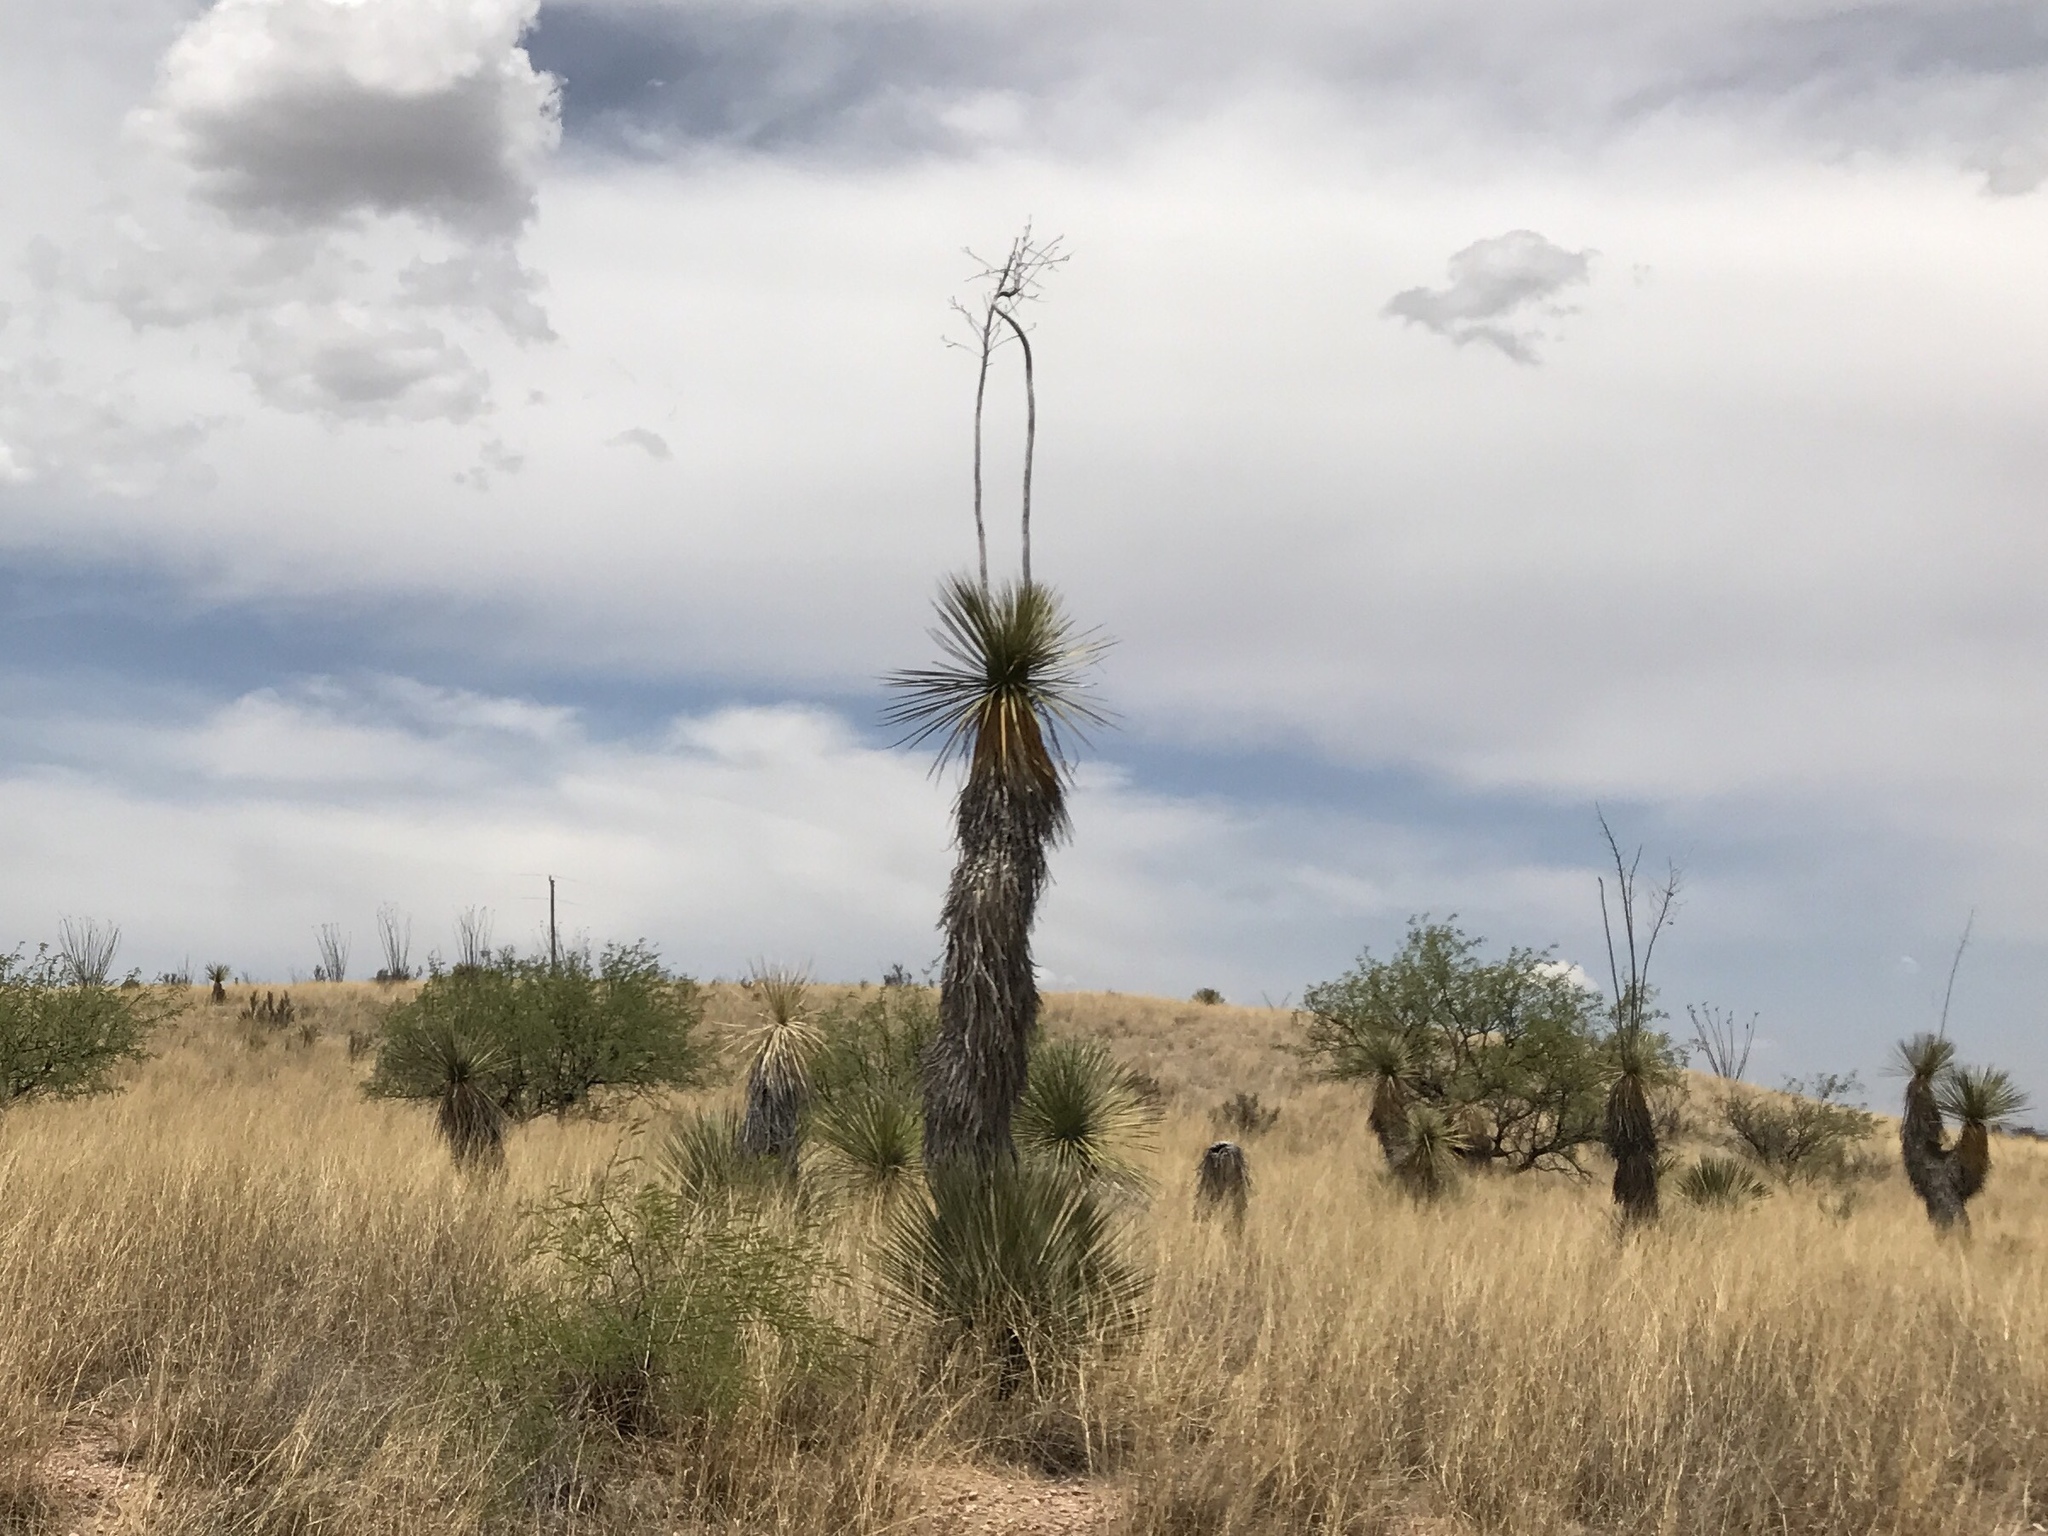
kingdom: Plantae
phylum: Tracheophyta
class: Liliopsida
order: Asparagales
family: Asparagaceae
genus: Yucca
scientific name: Yucca elata
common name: Palmella
